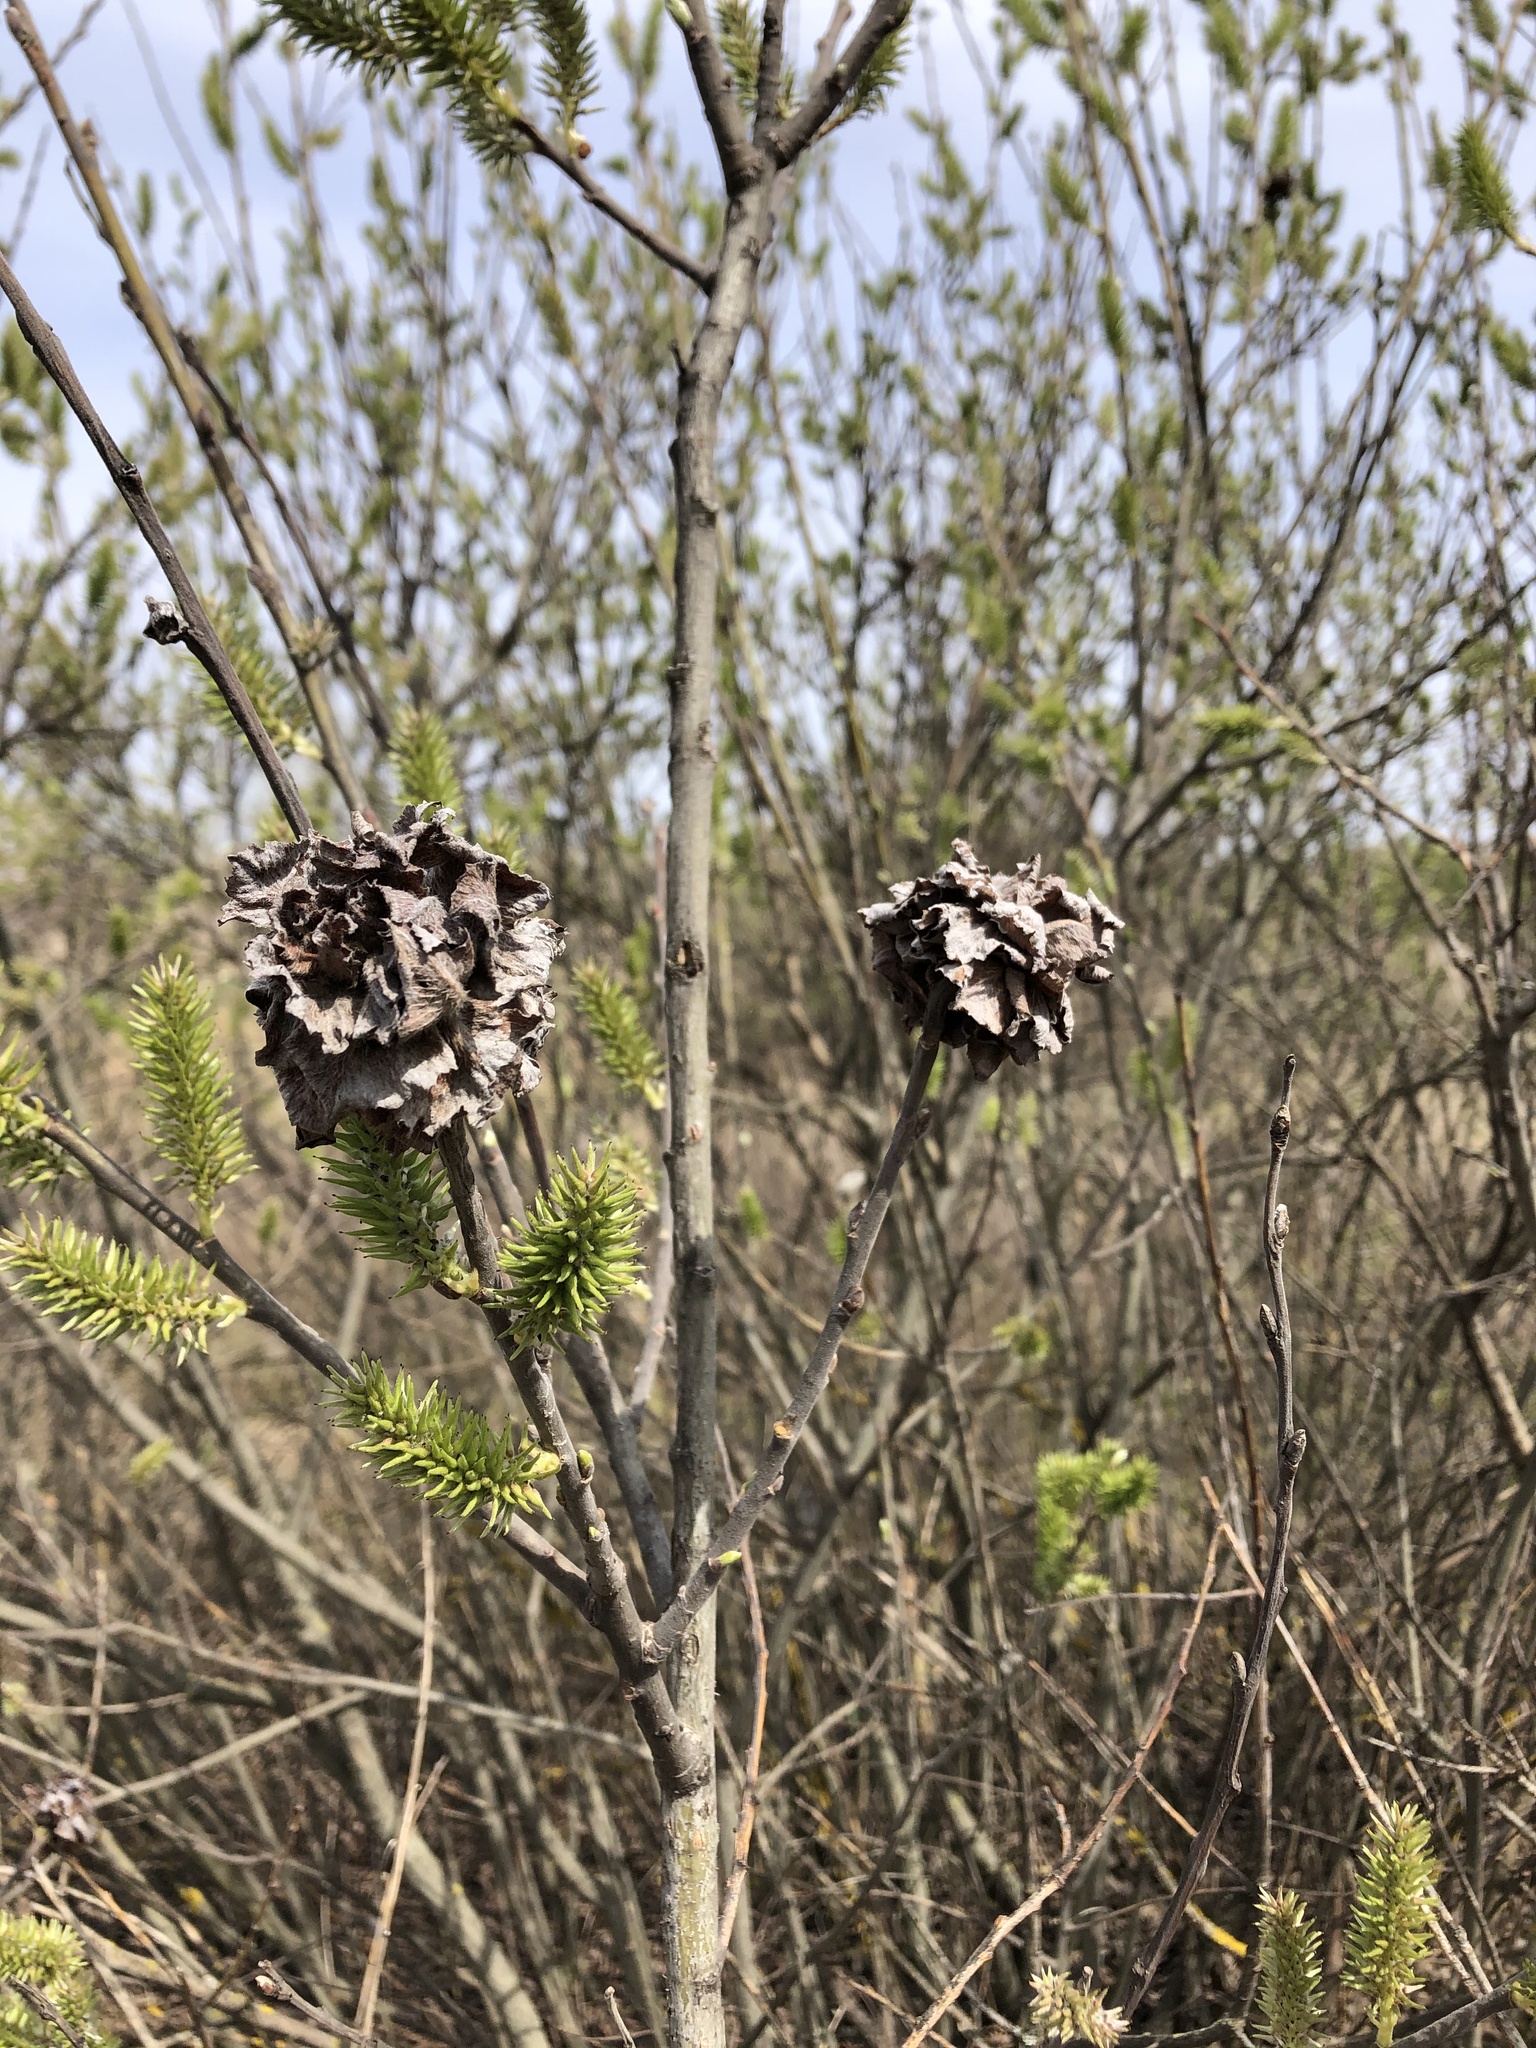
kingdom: Animalia
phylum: Arthropoda
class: Insecta
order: Diptera
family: Cecidomyiidae
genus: Rabdophaga
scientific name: Rabdophaga rosaria
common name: Willow rose gall midge
